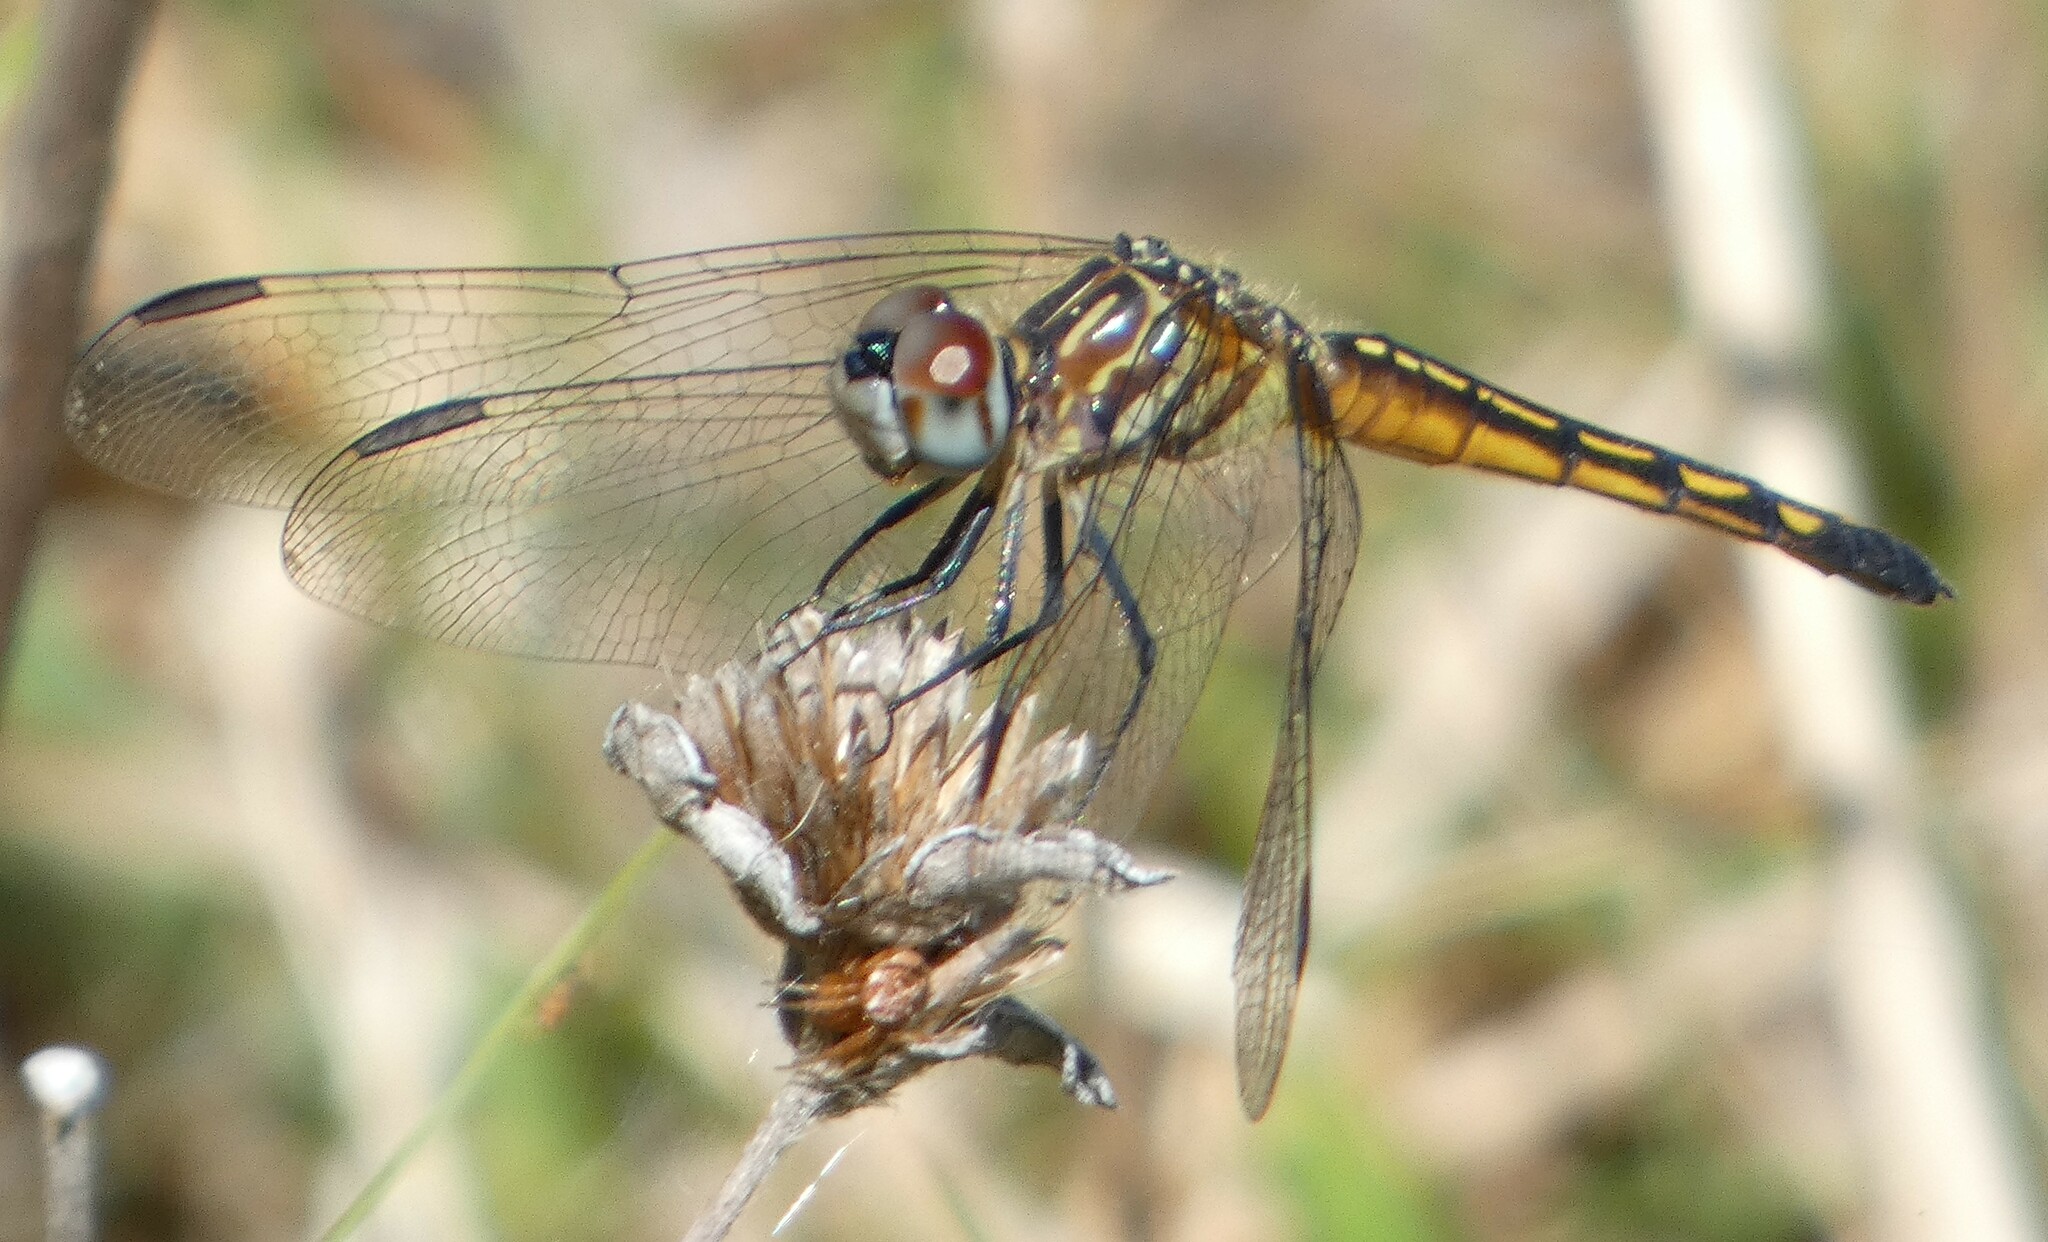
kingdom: Animalia
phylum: Arthropoda
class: Insecta
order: Odonata
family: Libellulidae
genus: Pachydiplax
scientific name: Pachydiplax longipennis
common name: Blue dasher
